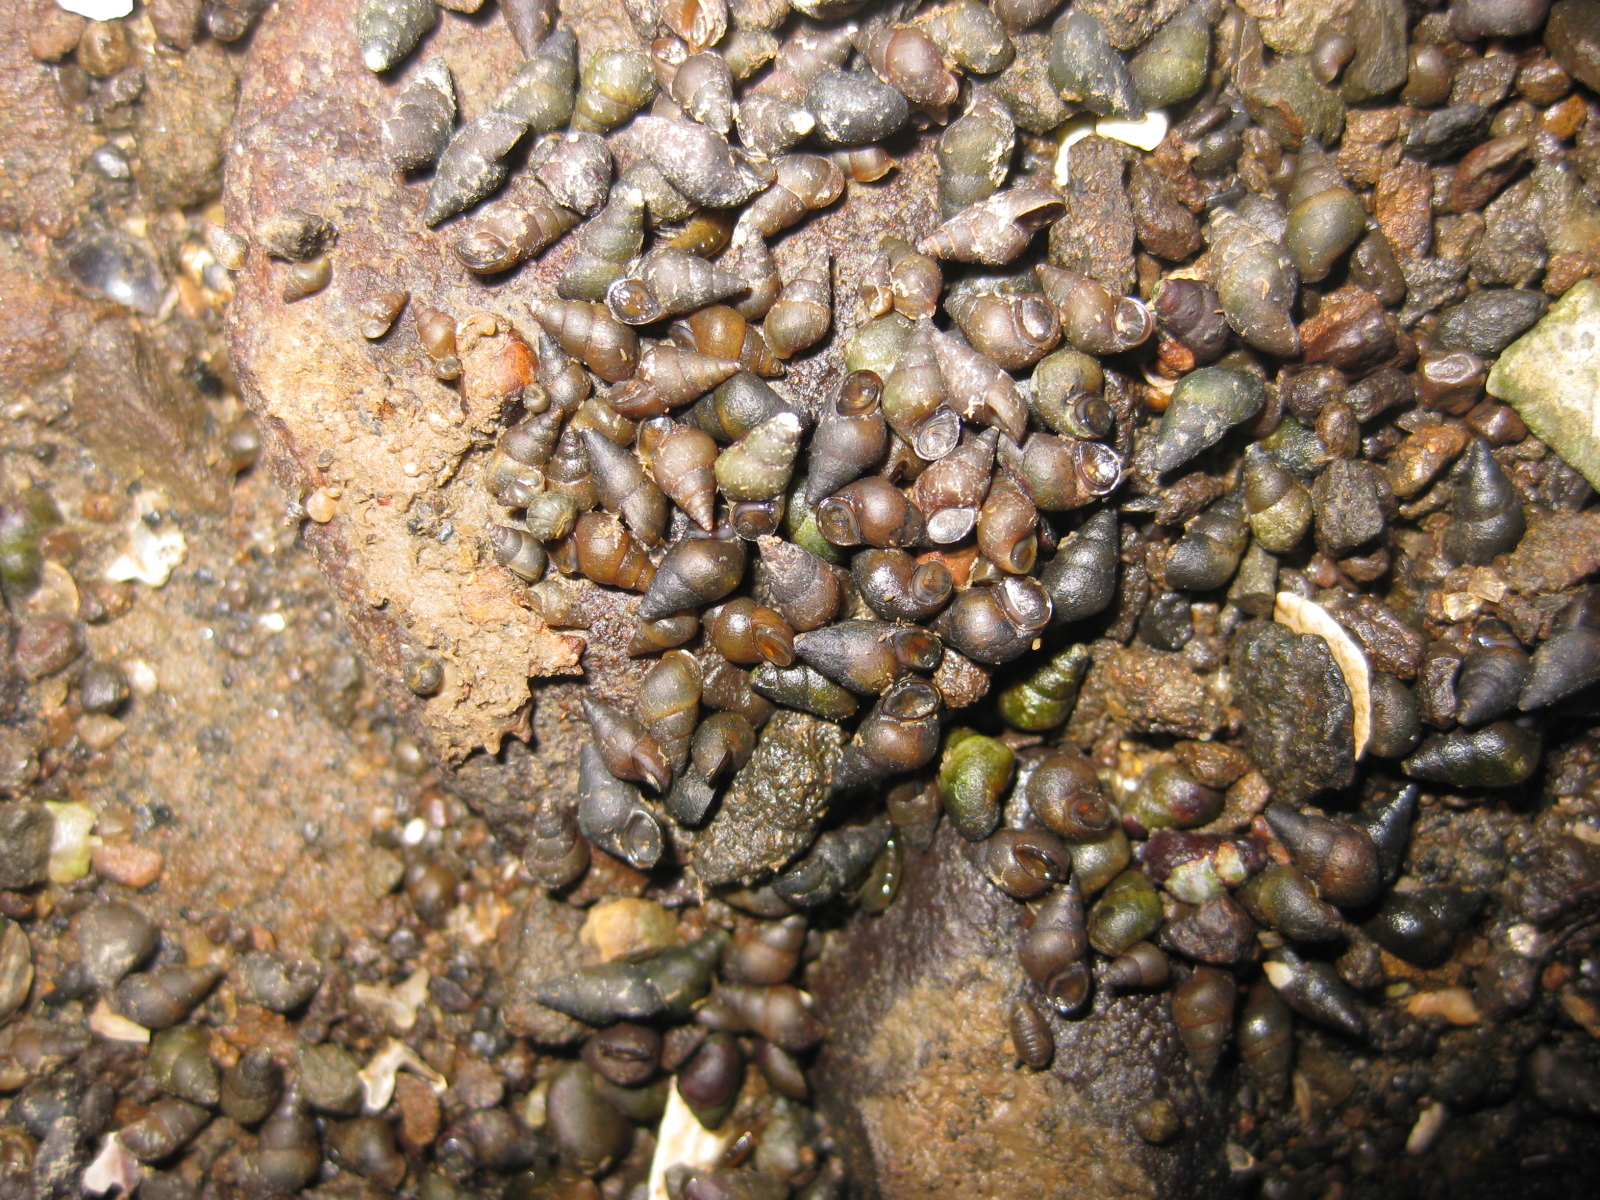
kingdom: Animalia
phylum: Mollusca
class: Gastropoda
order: Littorinimorpha
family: Tateidae
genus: Potamopyrgus
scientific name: Potamopyrgus estuarinus
